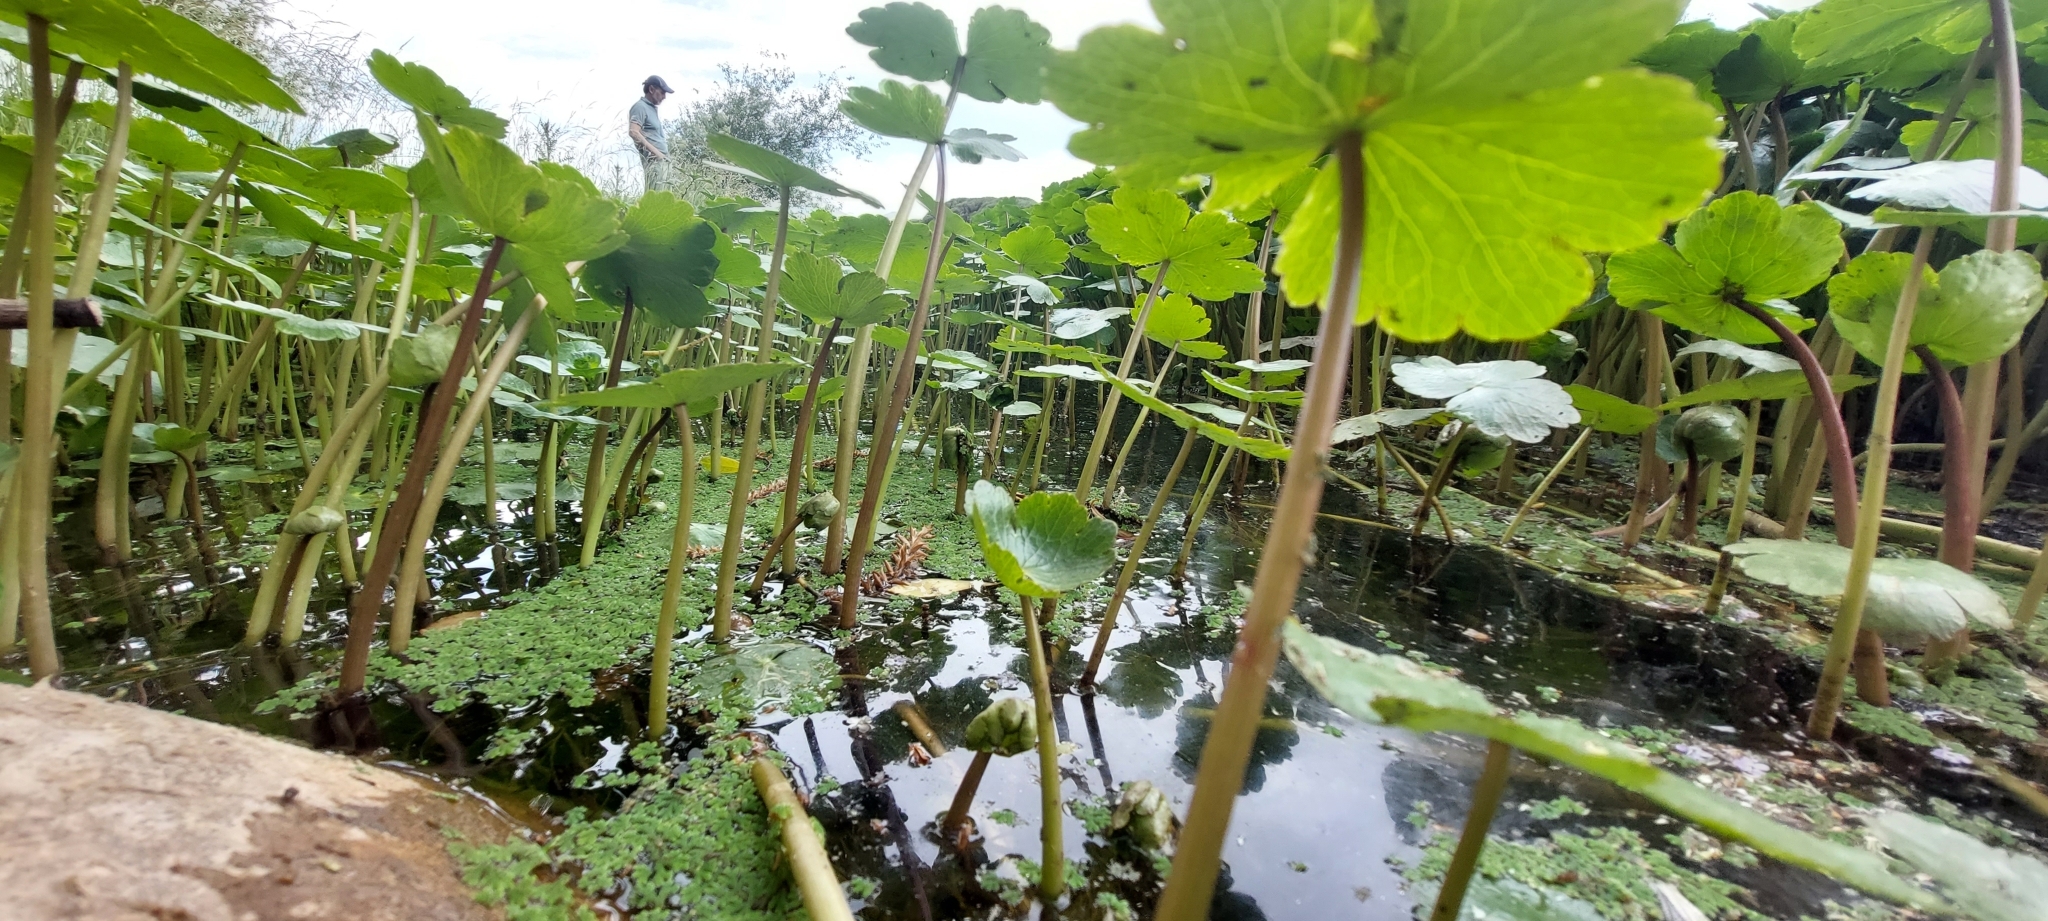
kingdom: Plantae
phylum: Tracheophyta
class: Magnoliopsida
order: Apiales
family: Araliaceae
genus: Hydrocotyle
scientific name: Hydrocotyle ranunculoides
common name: Floating pennywort
